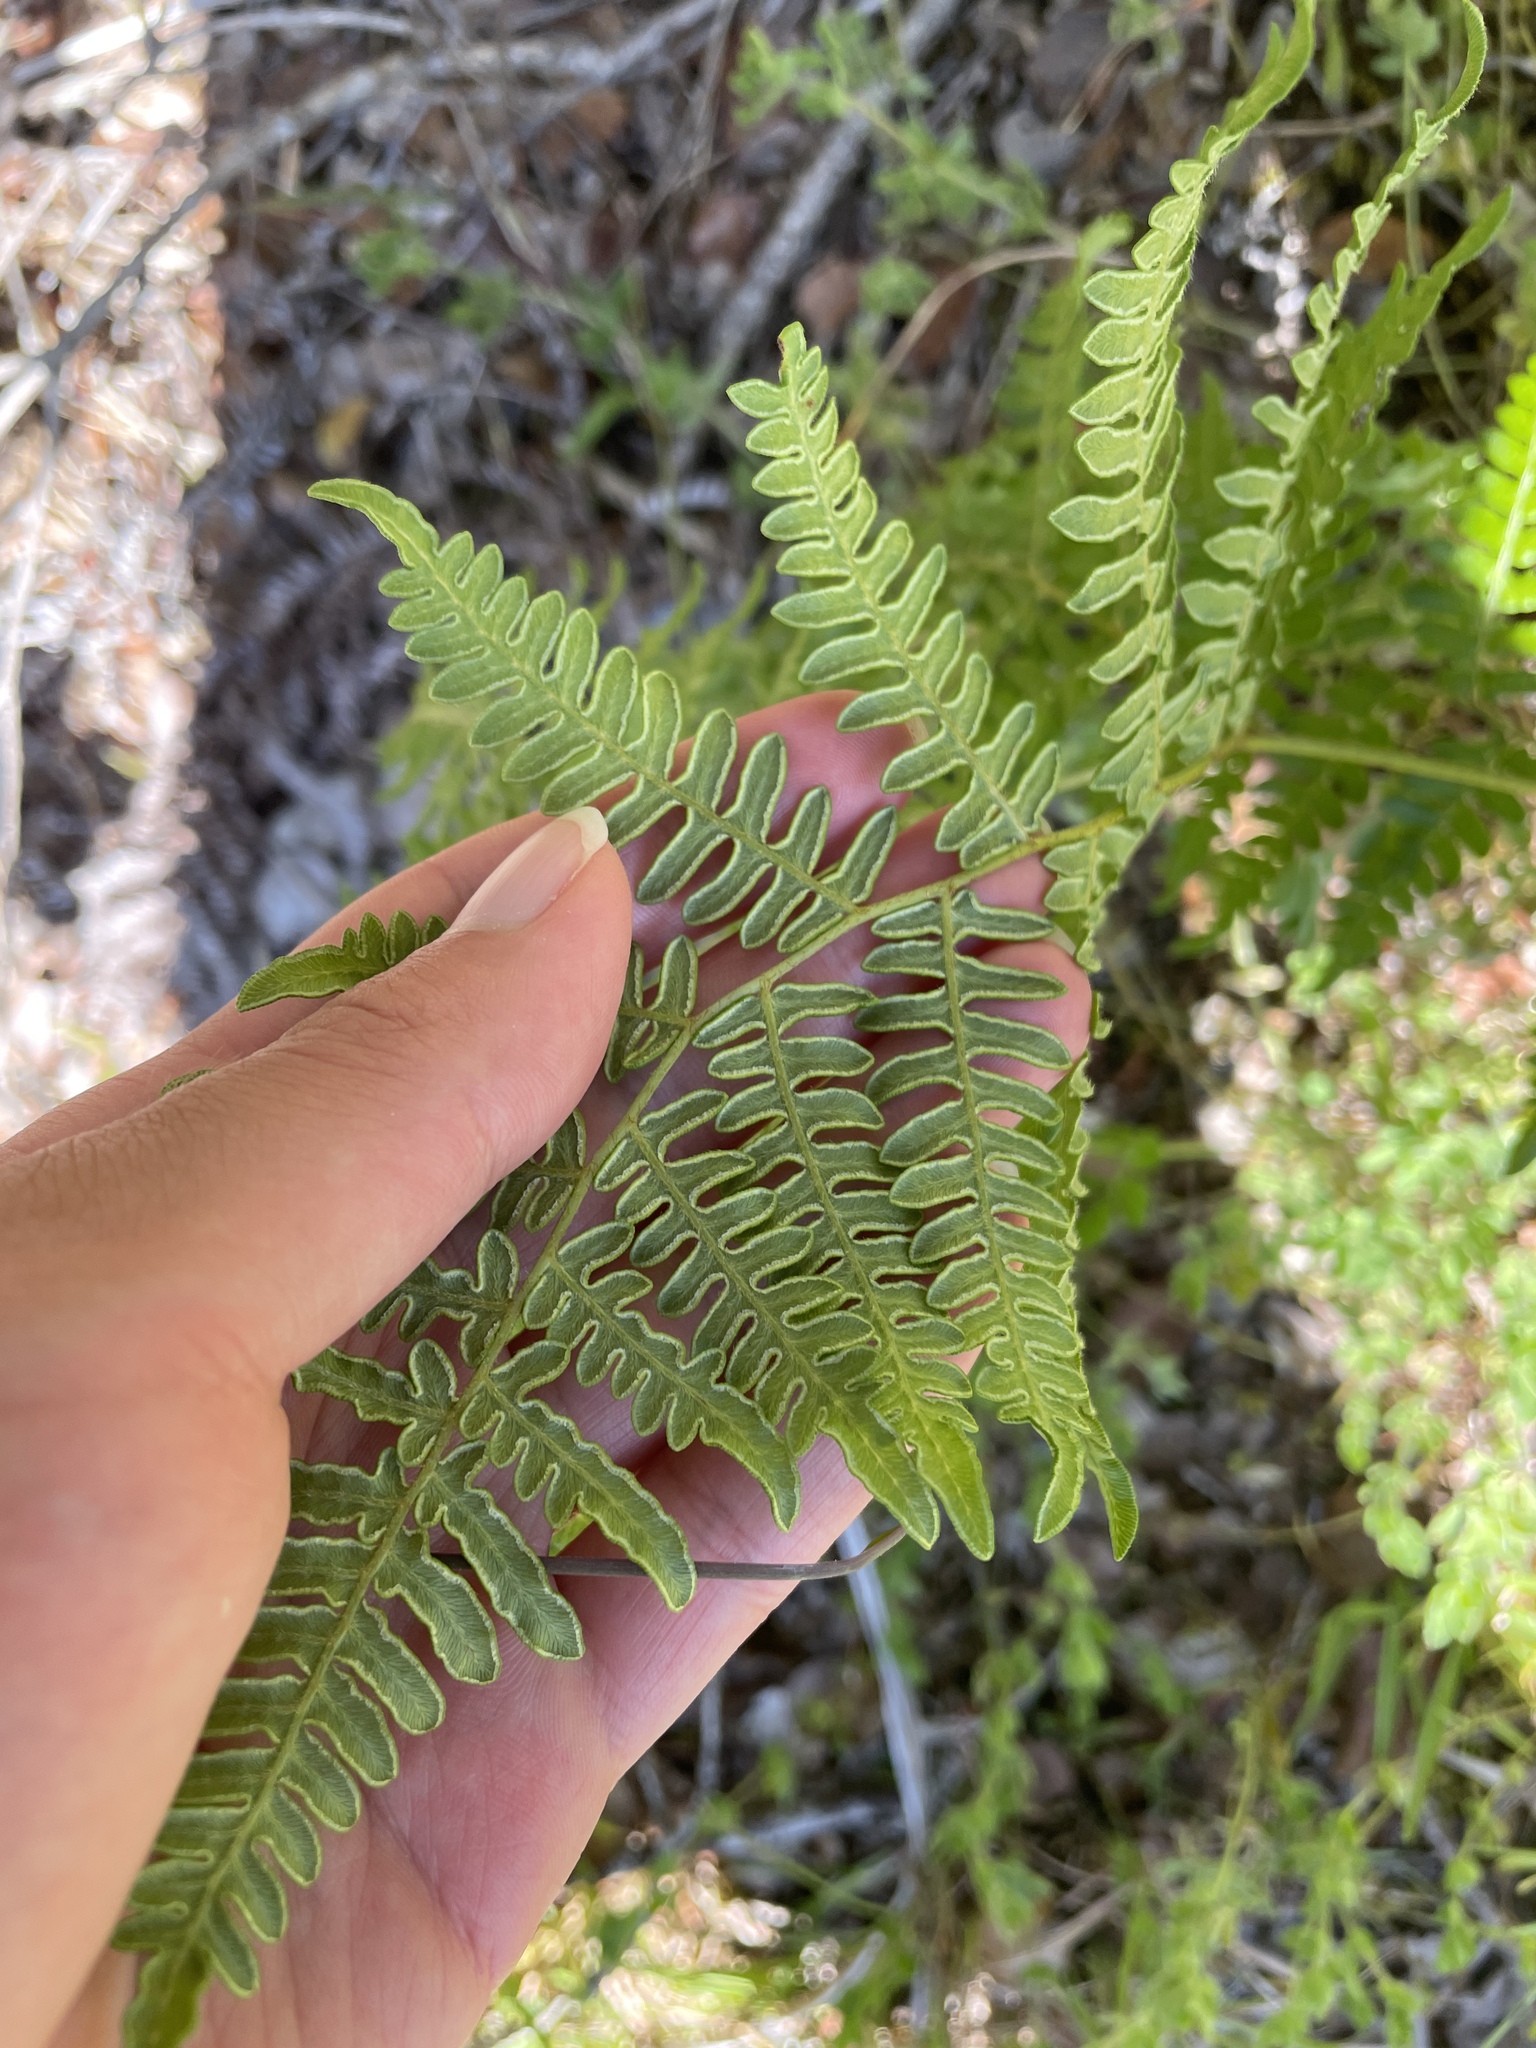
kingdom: Plantae
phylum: Tracheophyta
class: Polypodiopsida
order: Polypodiales
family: Dennstaedtiaceae
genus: Pteridium
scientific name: Pteridium aquilinum
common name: Bracken
